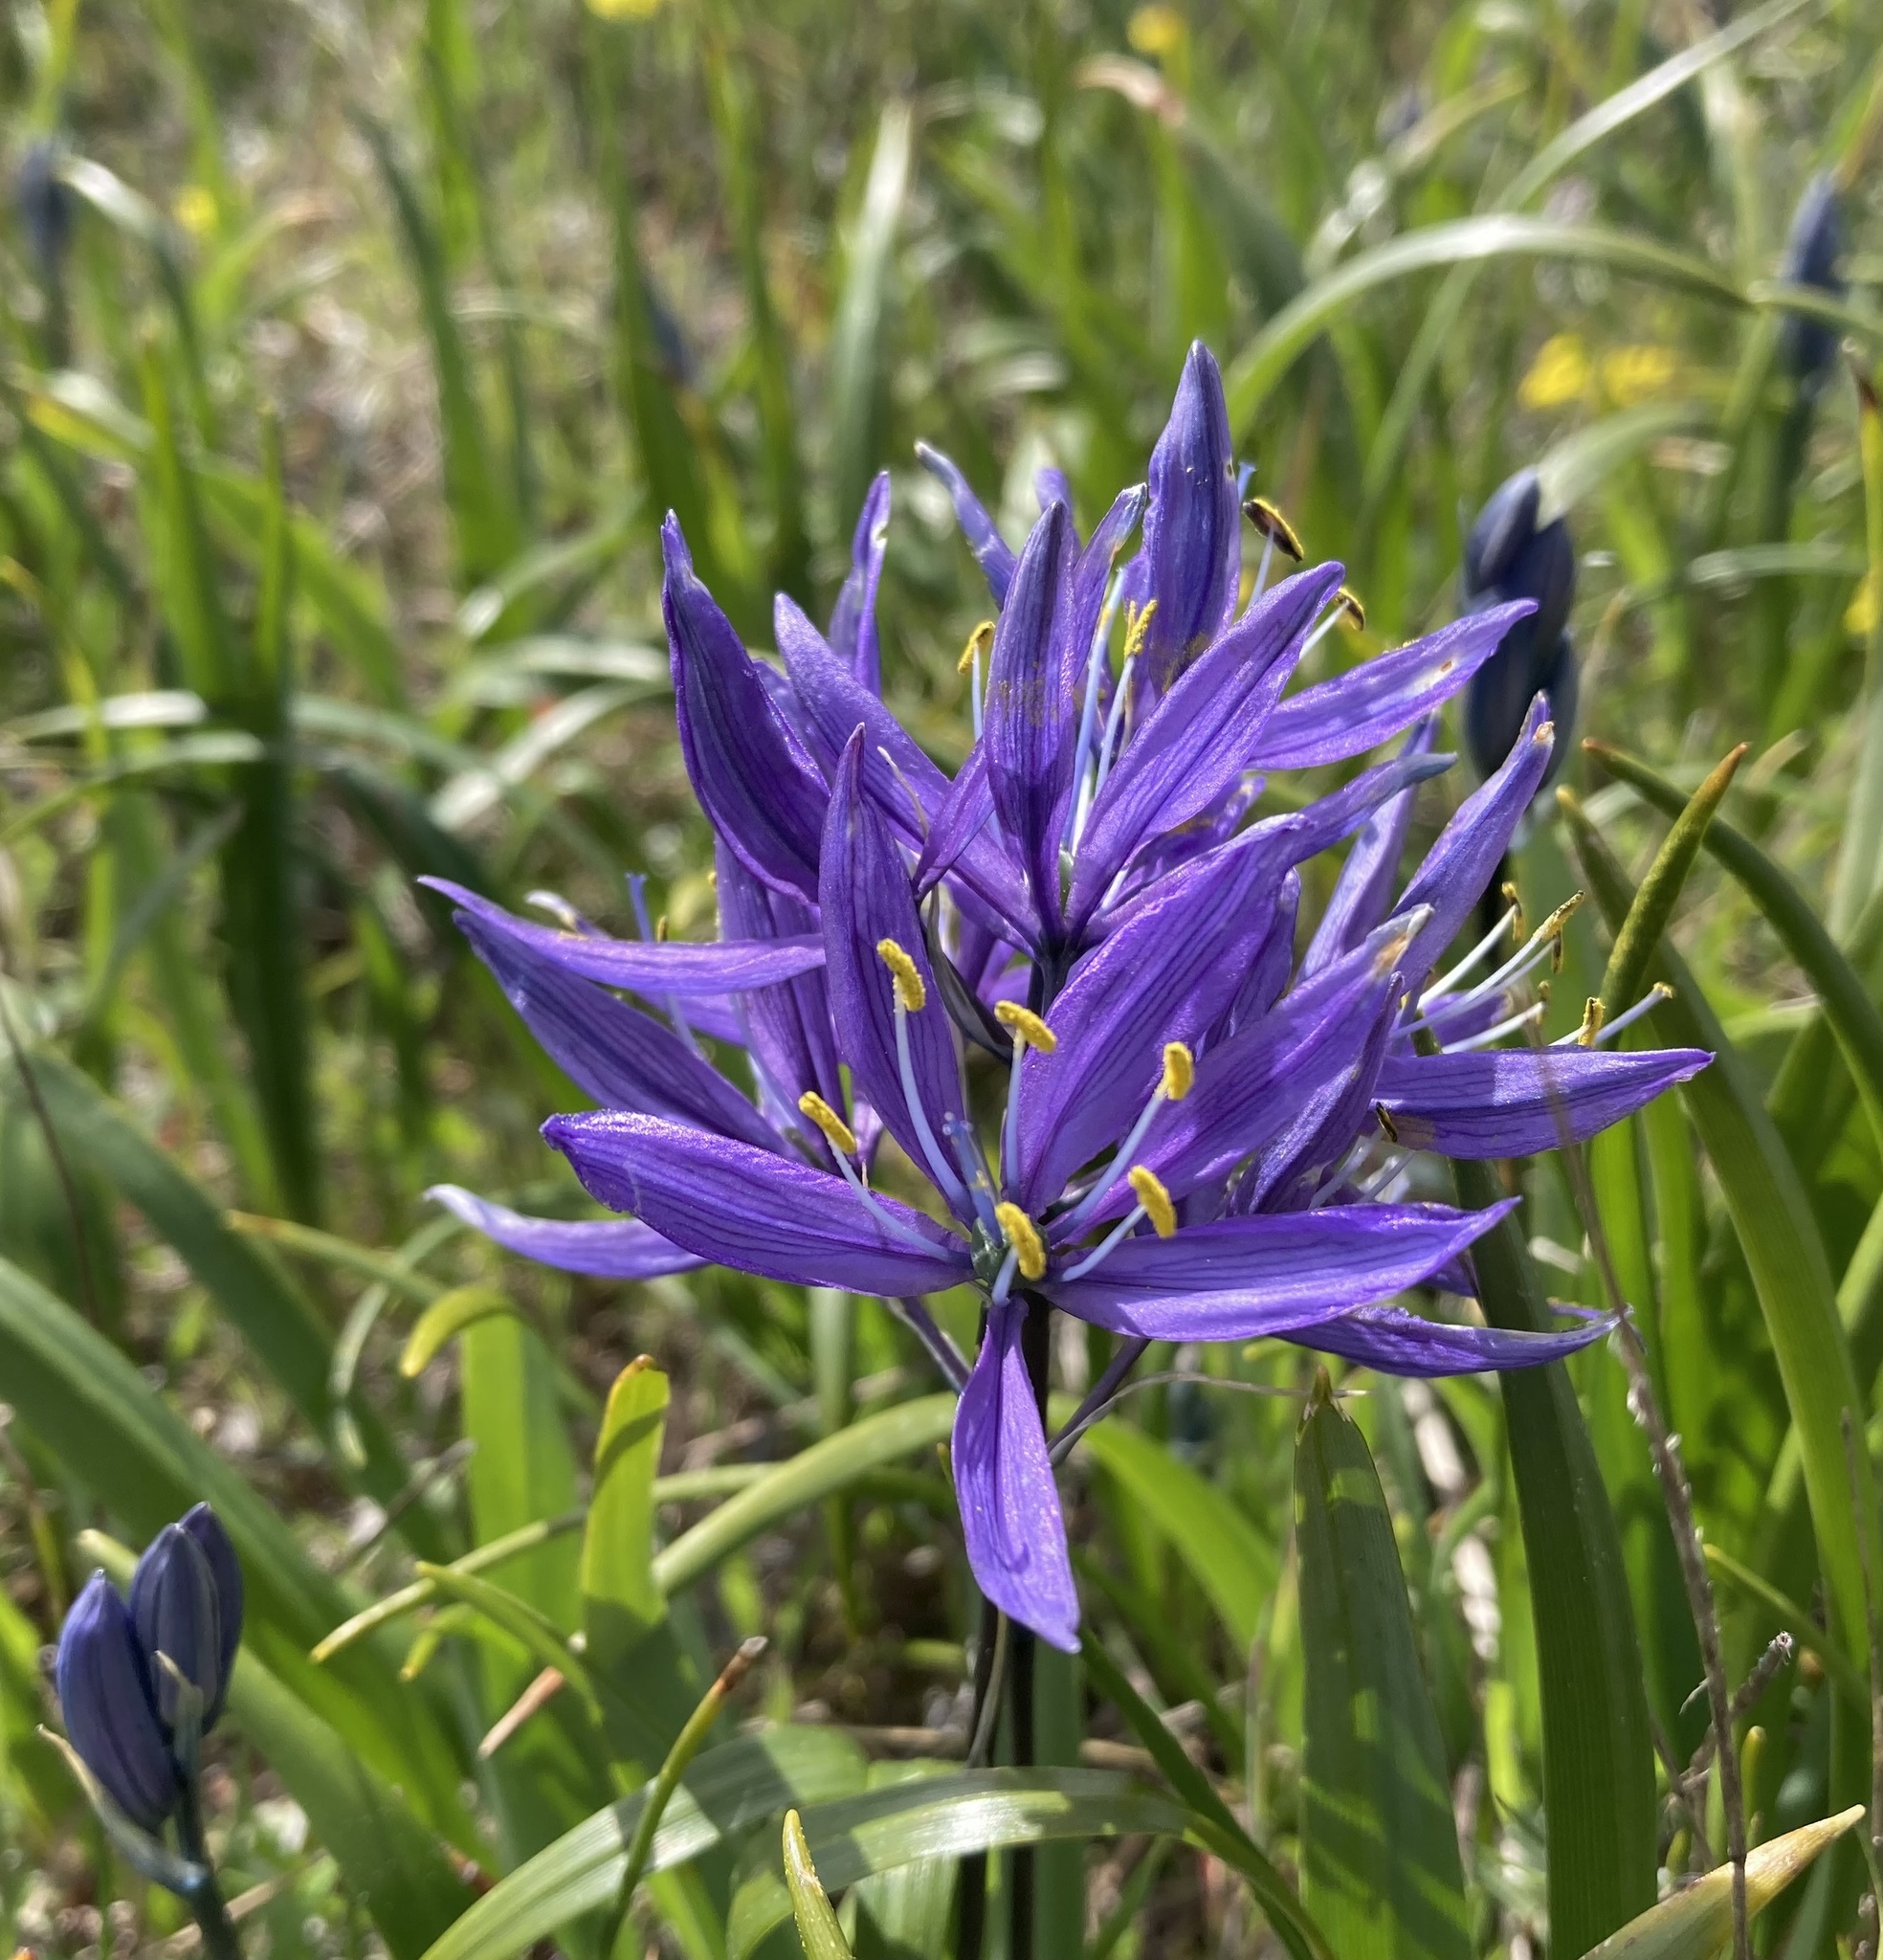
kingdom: Plantae
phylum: Tracheophyta
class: Liliopsida
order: Asparagales
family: Asparagaceae
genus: Camassia
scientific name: Camassia quamash
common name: Common camas
